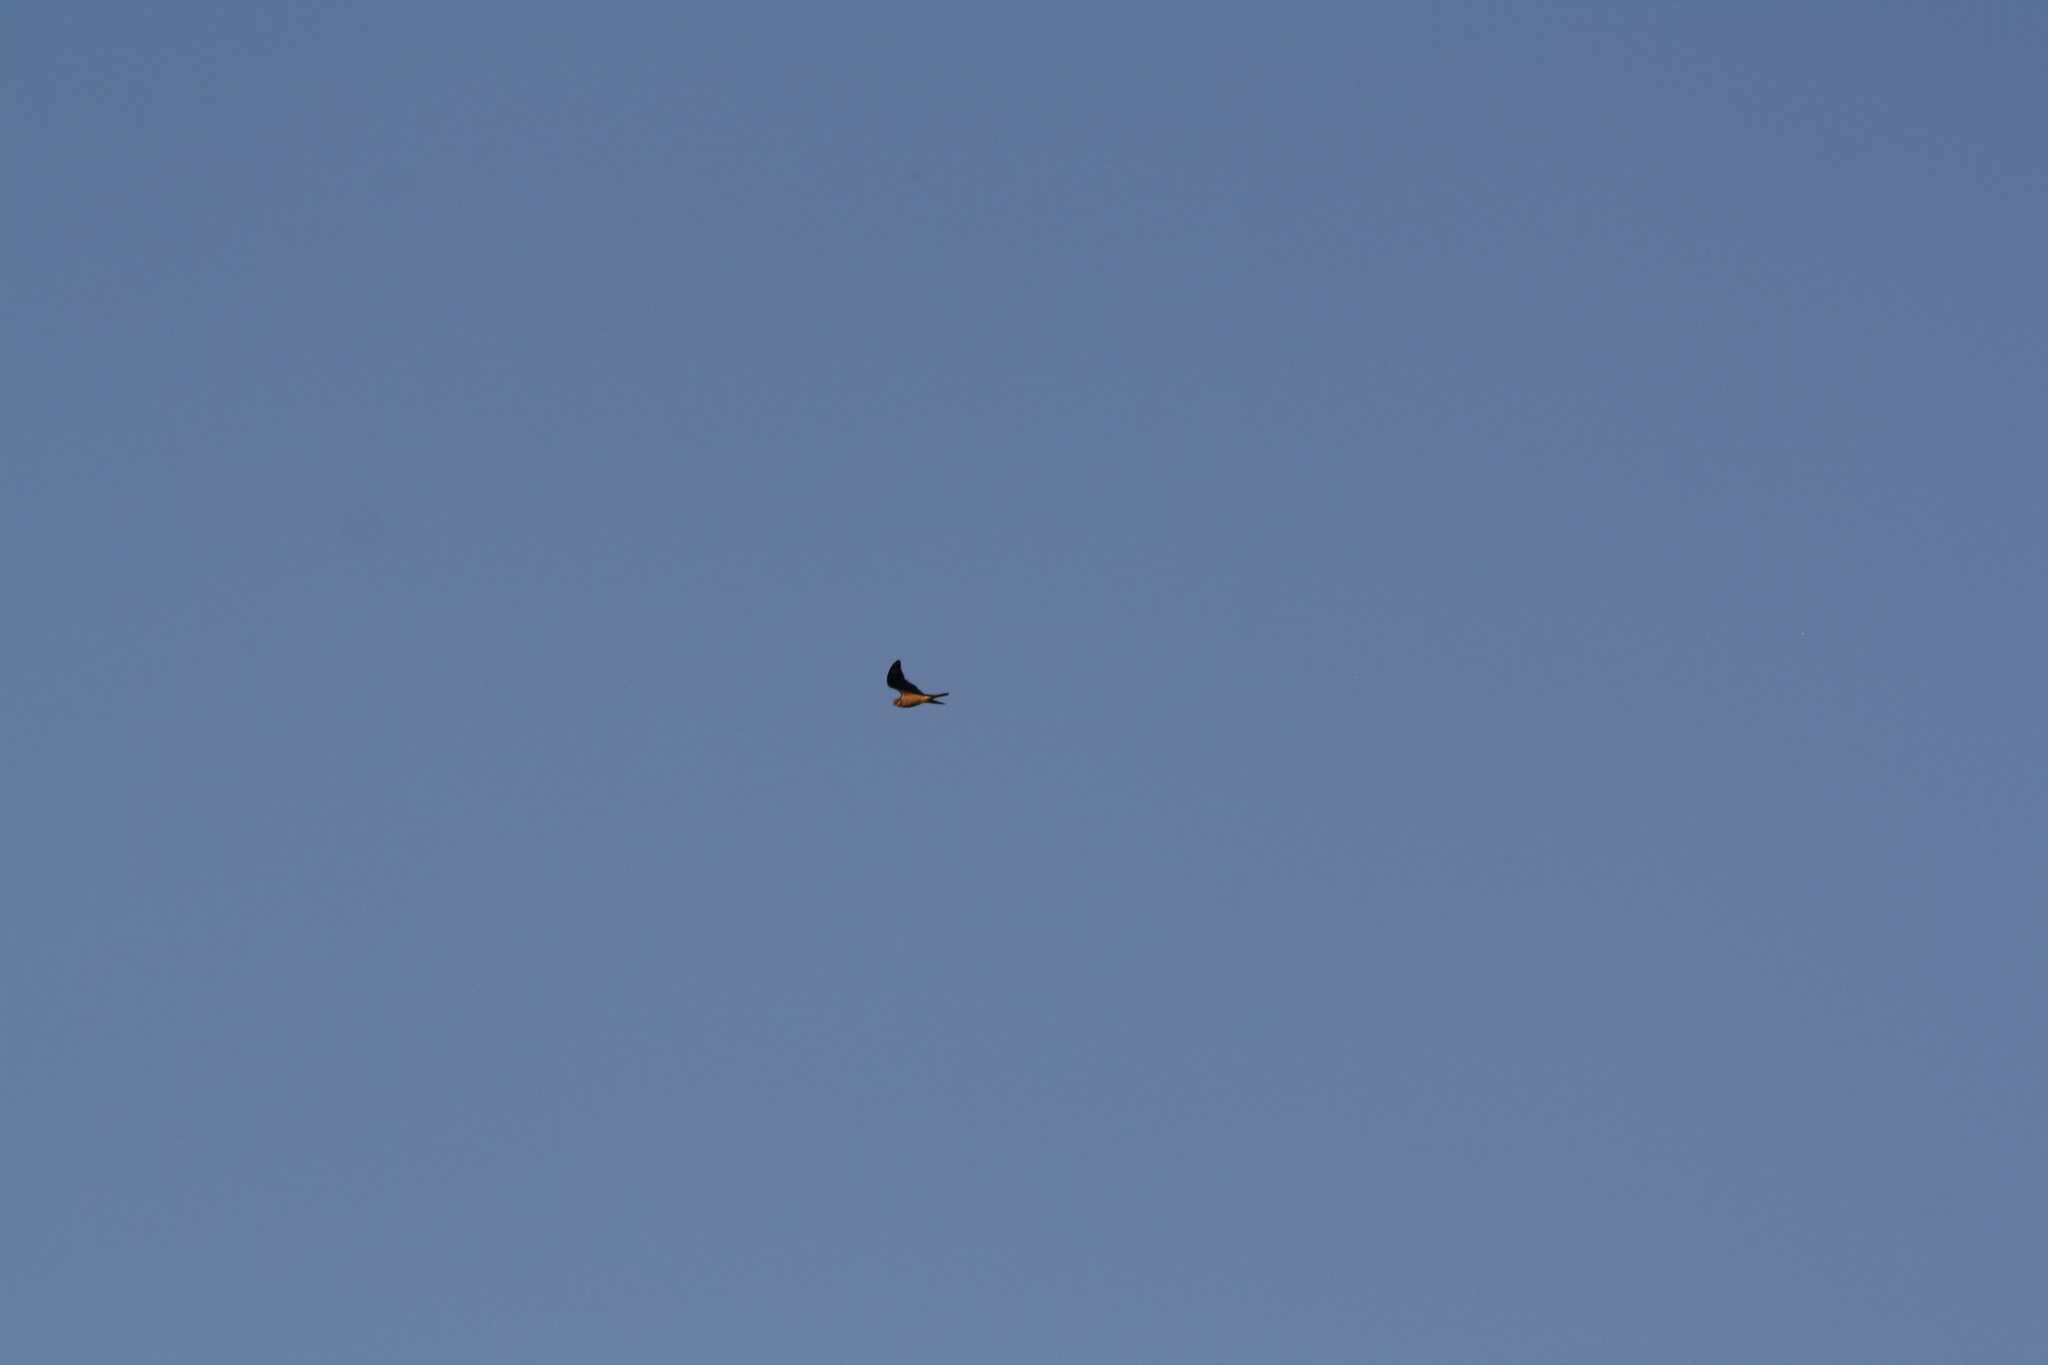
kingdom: Animalia
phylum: Chordata
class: Aves
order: Caprimulgiformes
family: Caprimulgidae
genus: Chordeiles
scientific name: Chordeiles minor
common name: Common nighthawk
